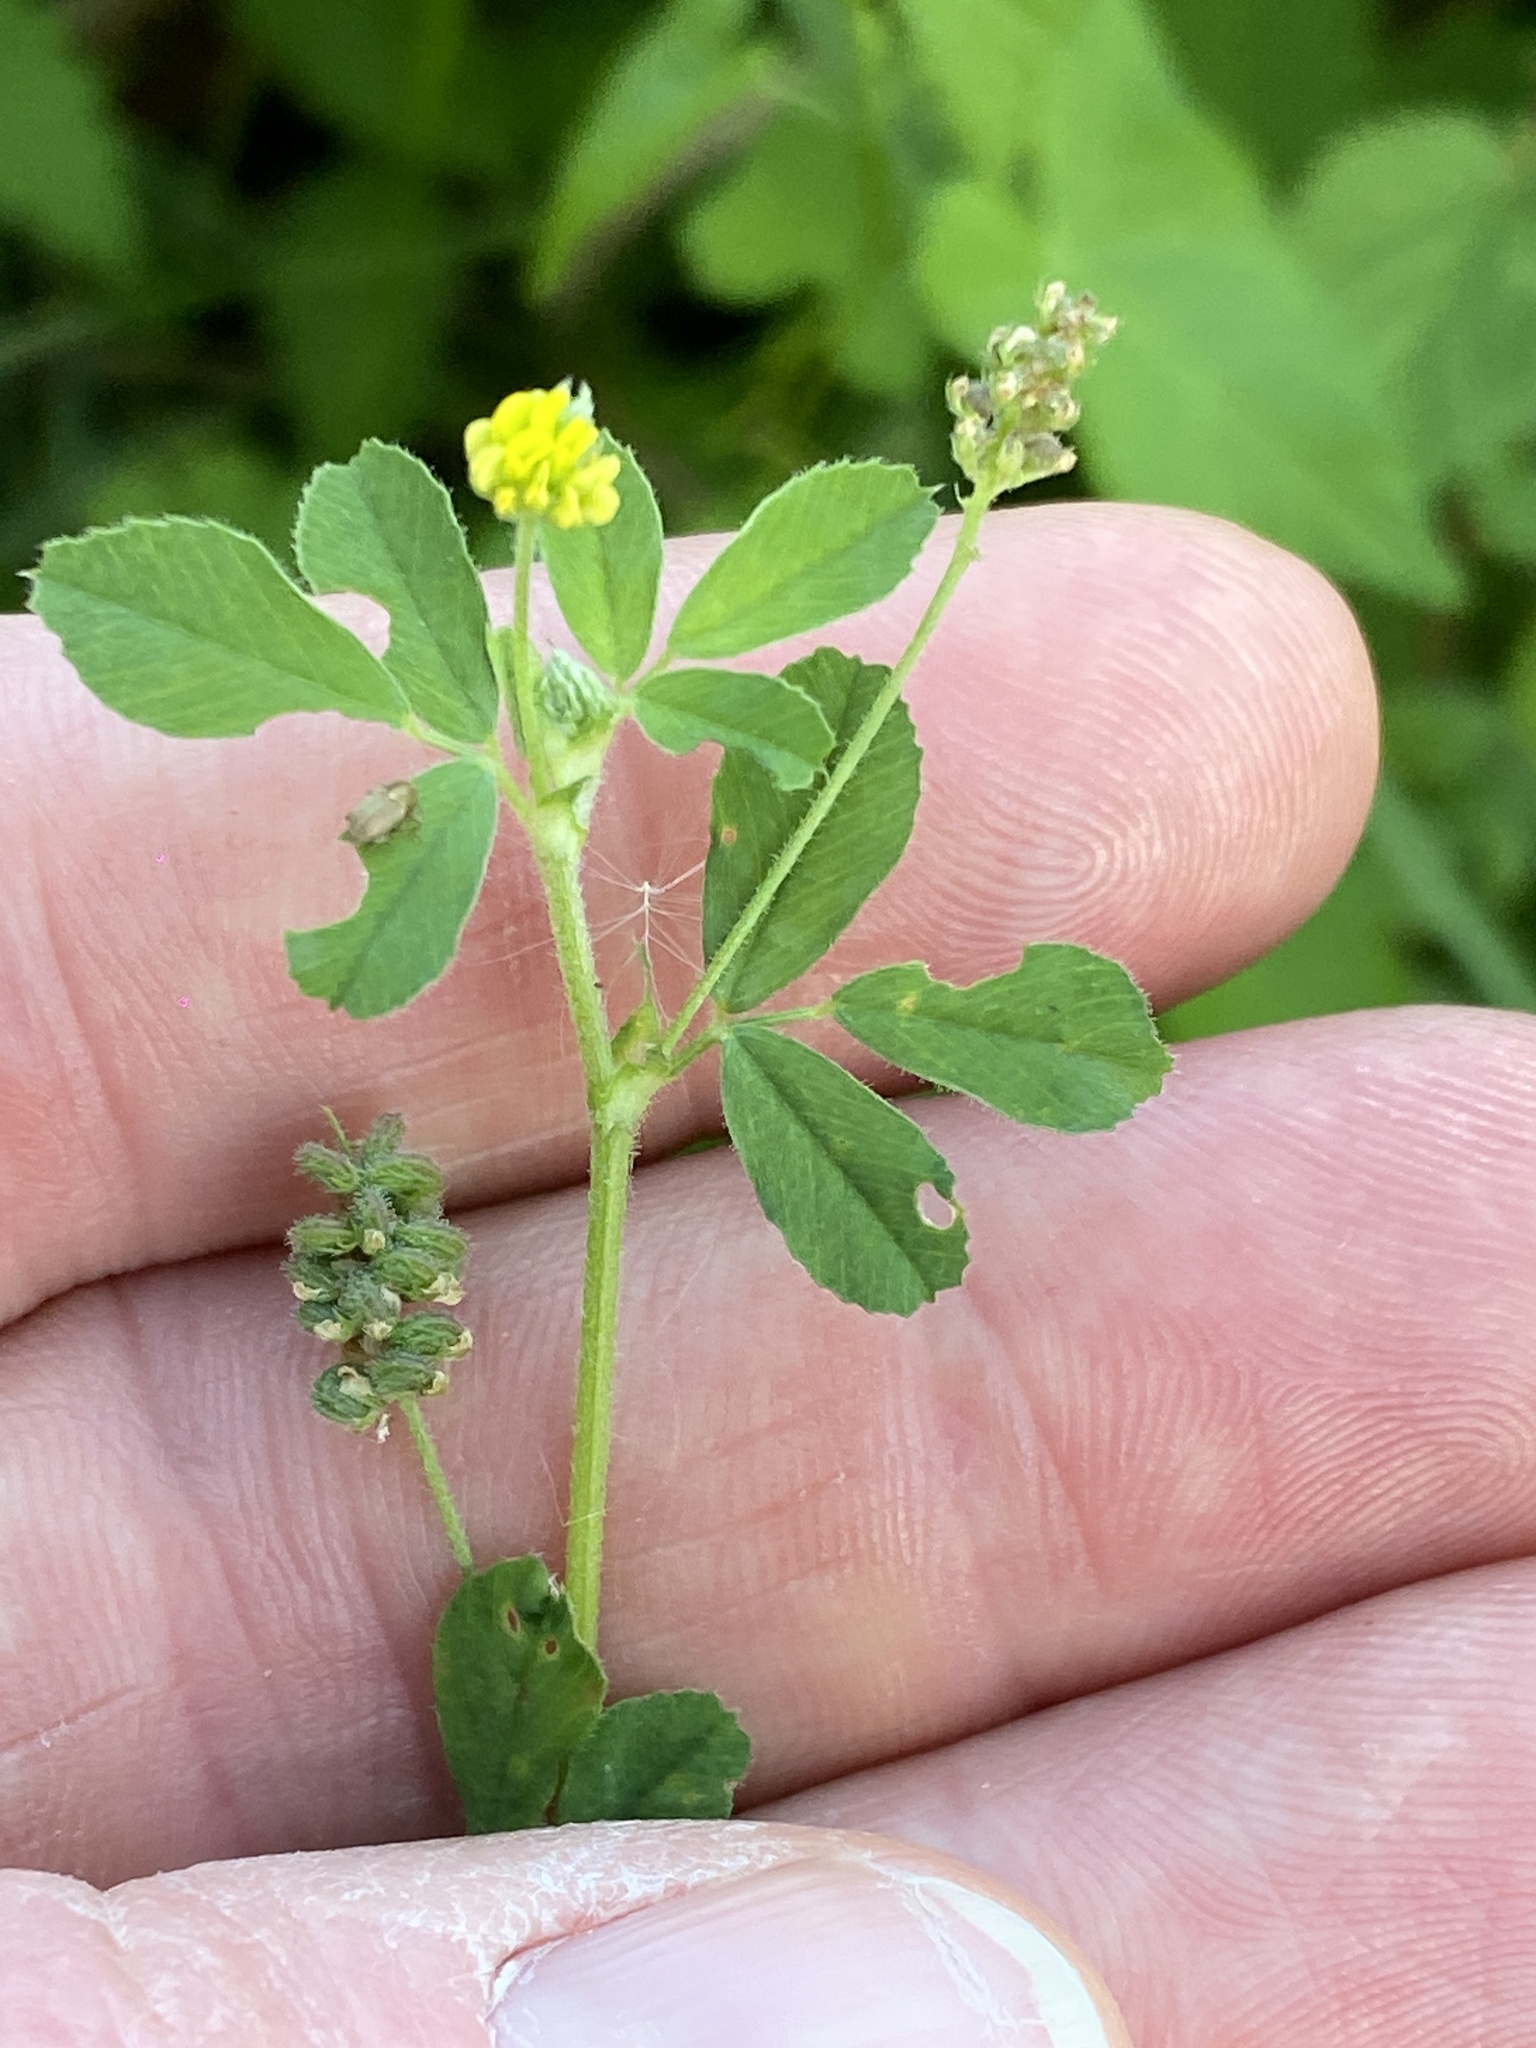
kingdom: Plantae
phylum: Tracheophyta
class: Magnoliopsida
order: Fabales
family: Fabaceae
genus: Medicago
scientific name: Medicago lupulina
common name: Black medick
